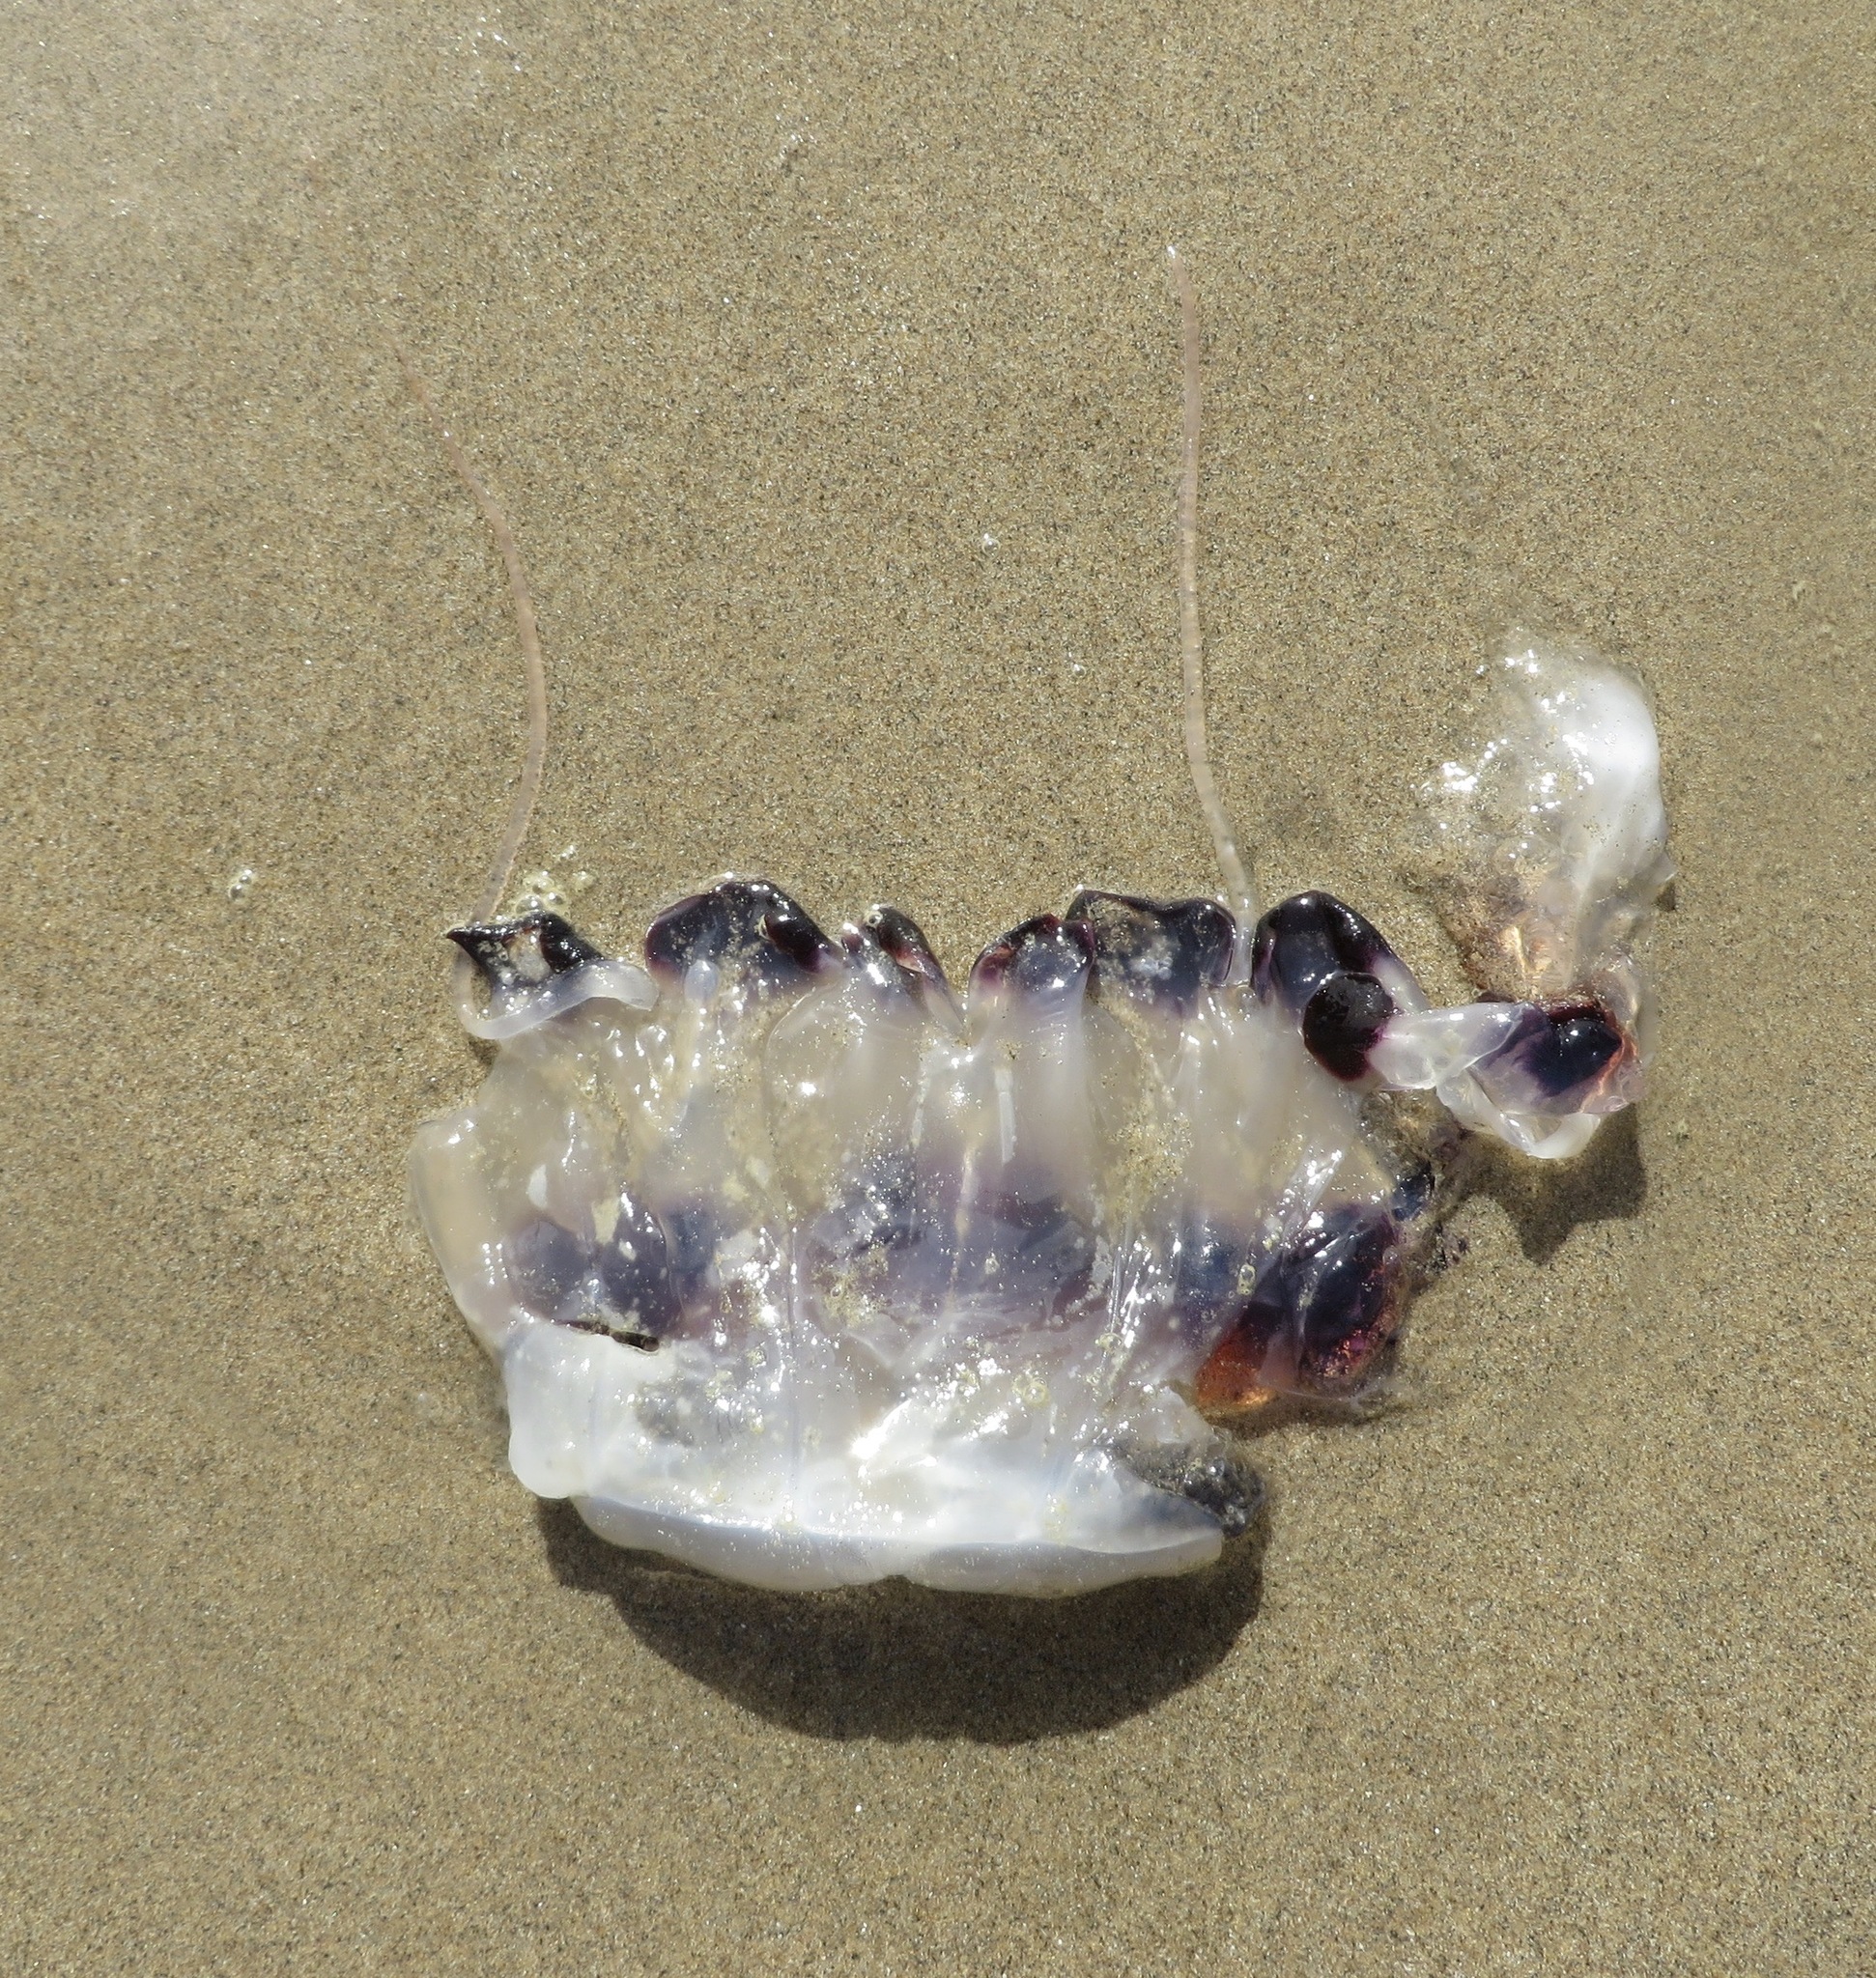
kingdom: Animalia
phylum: Cnidaria
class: Scyphozoa
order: Semaeostomeae
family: Pelagiidae
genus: Chrysaora
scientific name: Chrysaora colorata
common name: Purple-striped jellyfish
